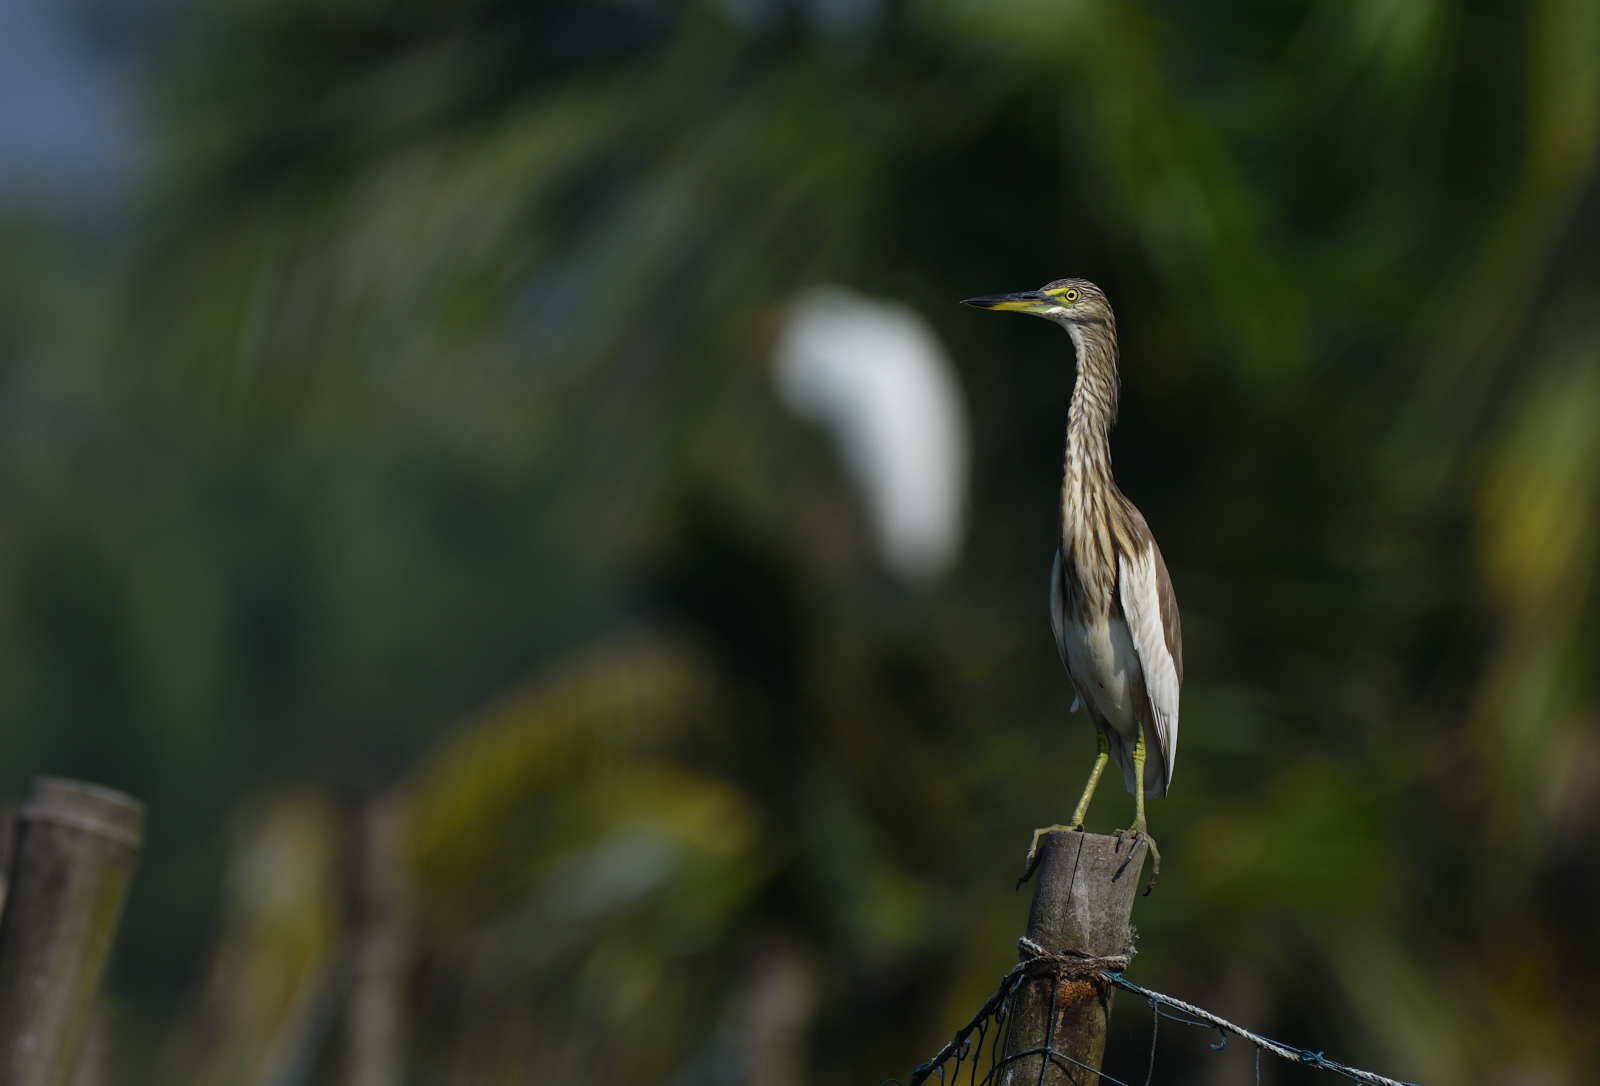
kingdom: Animalia
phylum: Chordata
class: Aves
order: Pelecaniformes
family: Ardeidae
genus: Ardeola
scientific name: Ardeola grayii
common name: Indian pond heron
